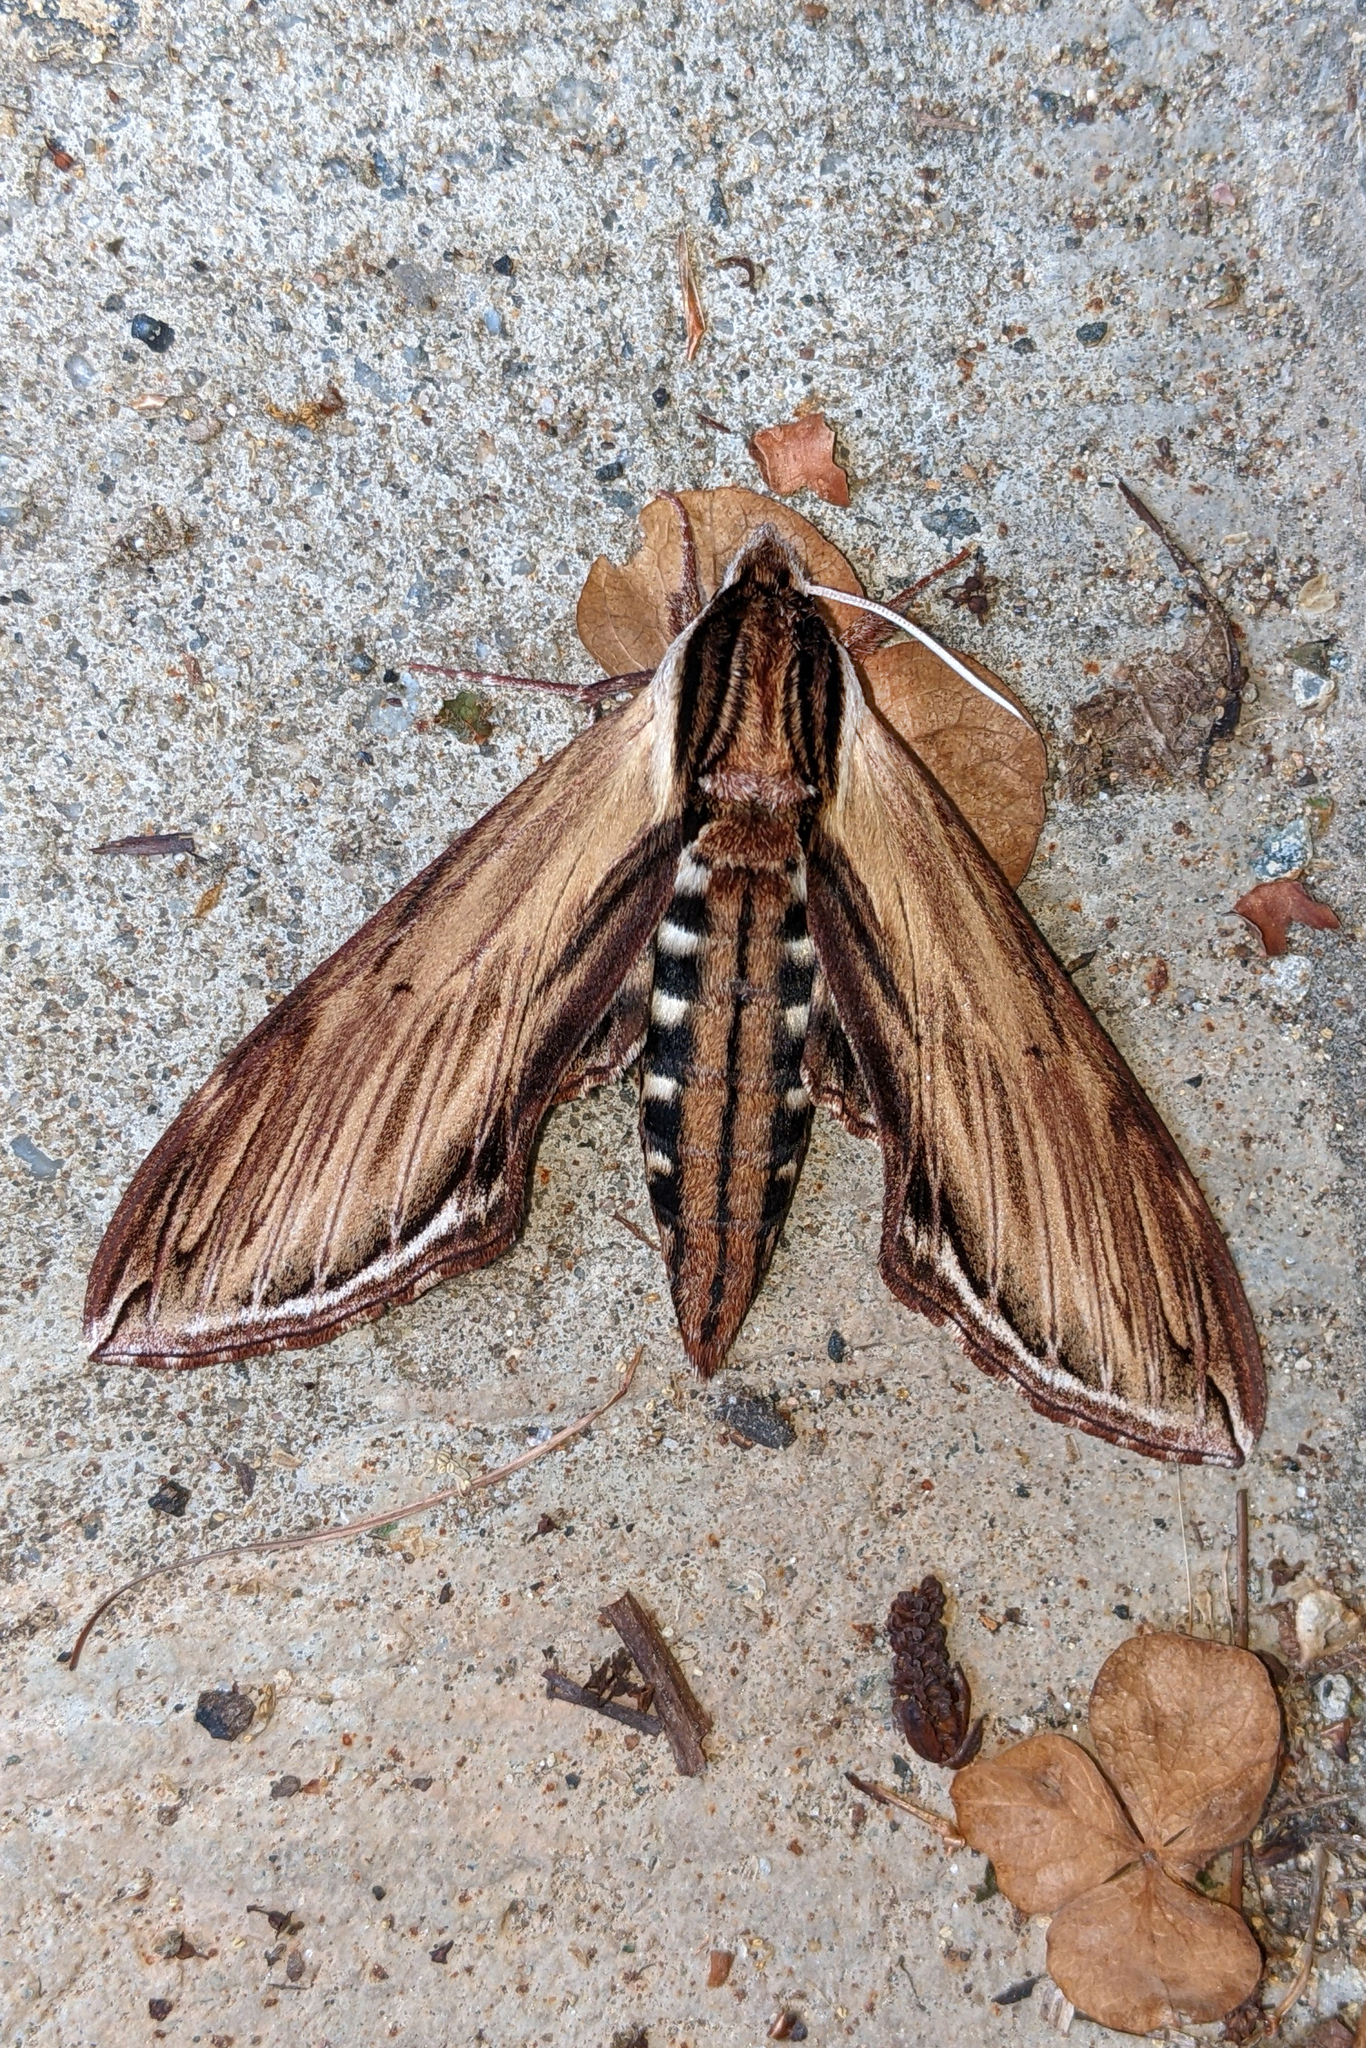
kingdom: Animalia
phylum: Arthropoda
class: Insecta
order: Lepidoptera
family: Sphingidae
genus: Sphinx
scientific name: Sphinx kalmiae
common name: Laurel sphinx
